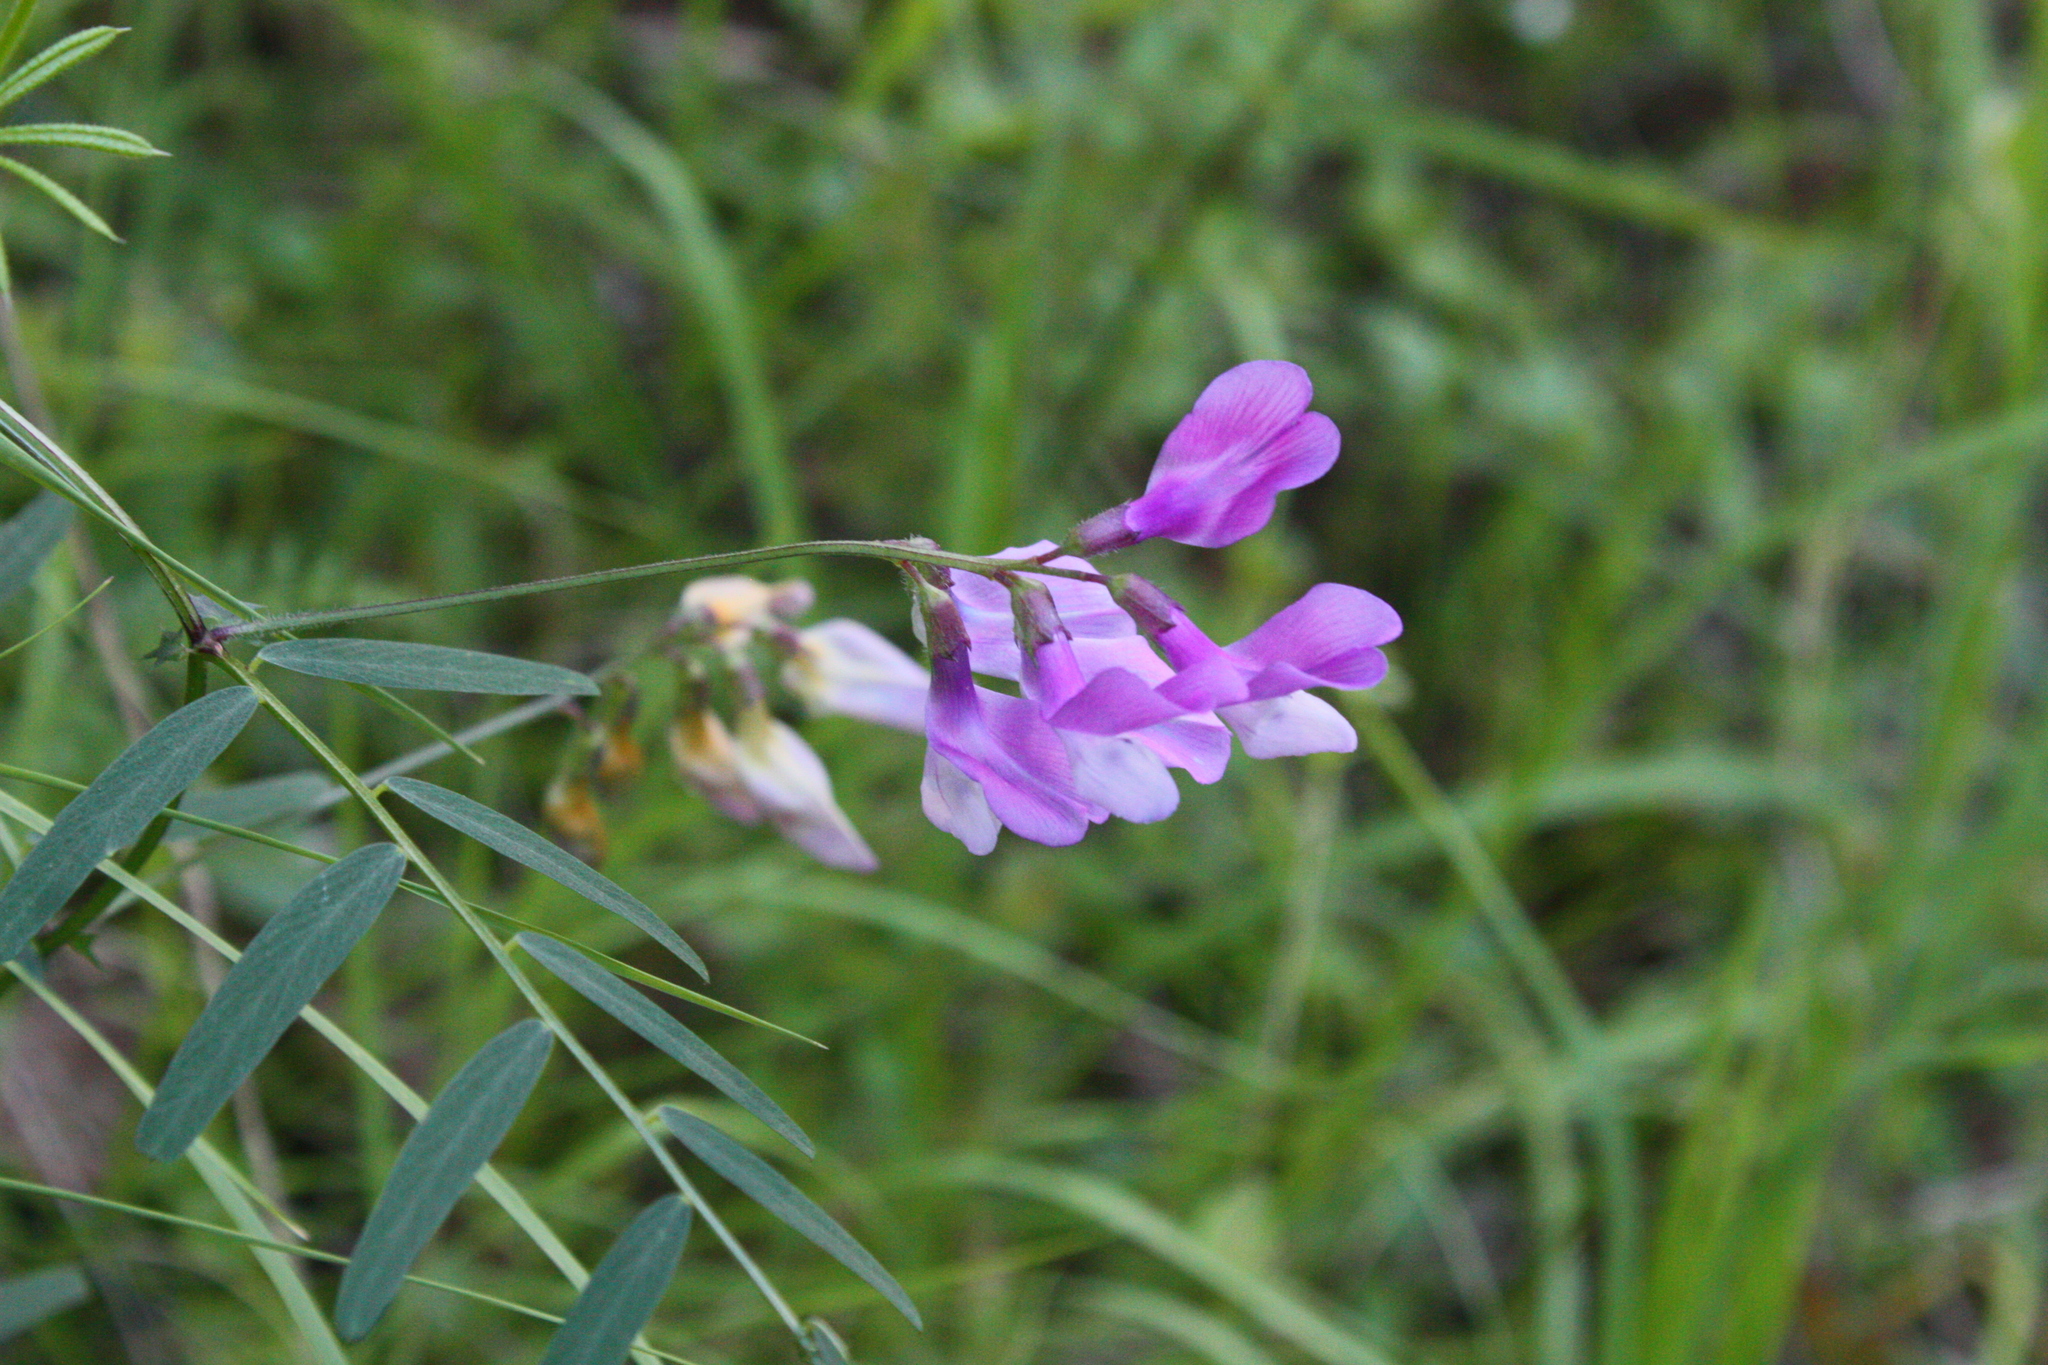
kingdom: Plantae
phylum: Tracheophyta
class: Magnoliopsida
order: Fabales
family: Fabaceae
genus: Vicia
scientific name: Vicia americana
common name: American vetch
